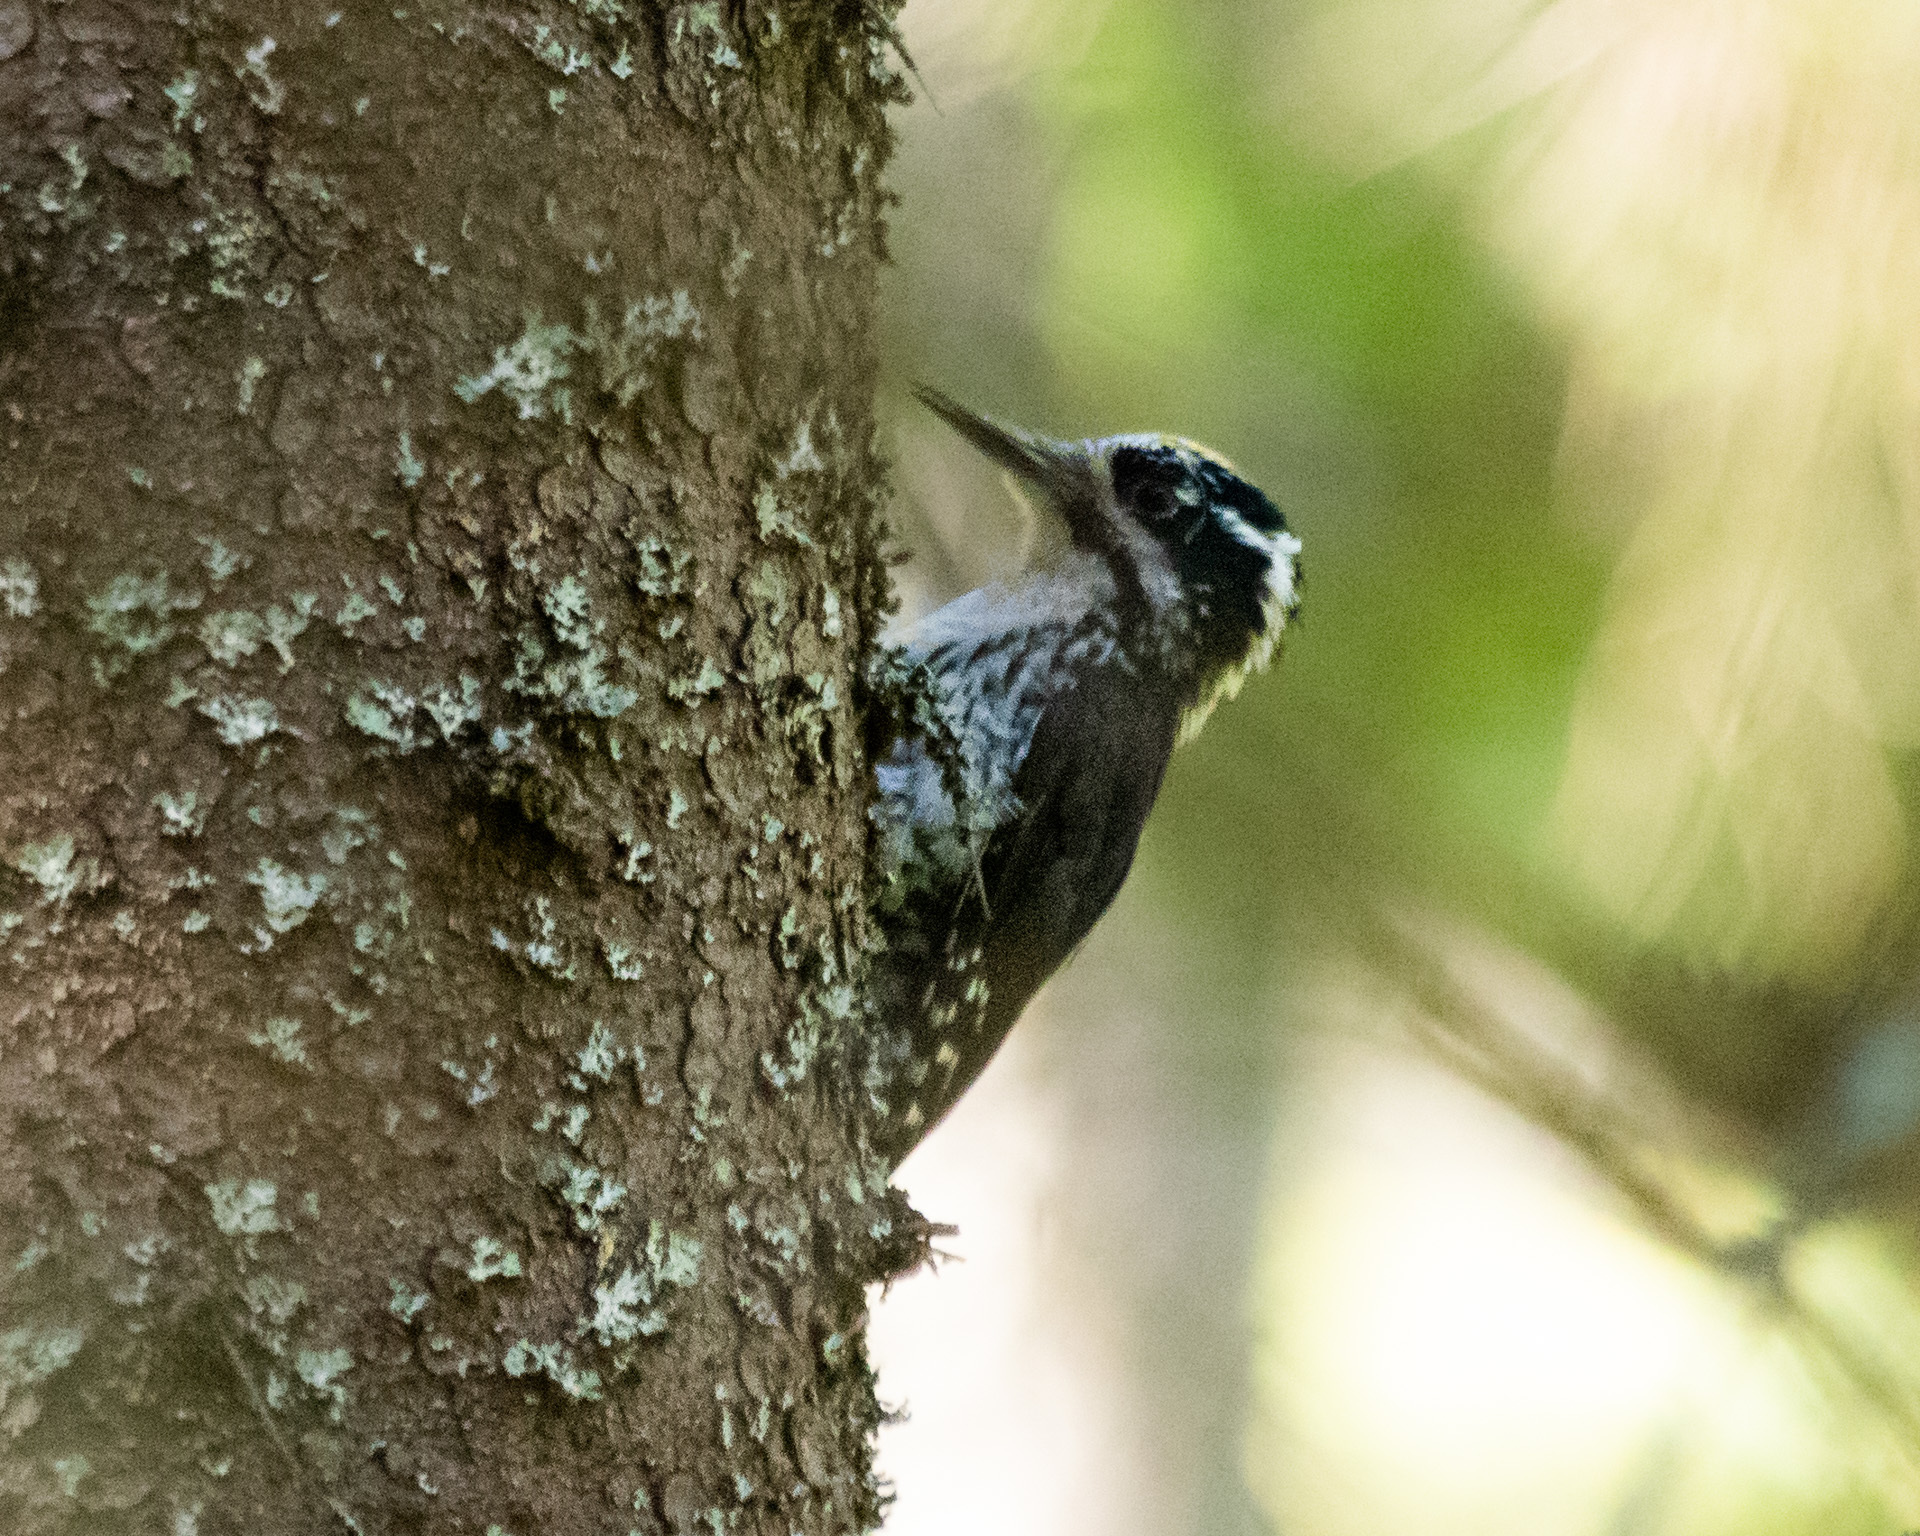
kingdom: Animalia
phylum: Chordata
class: Aves
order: Piciformes
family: Picidae
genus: Picoides
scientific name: Picoides tridactylus
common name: Eurasian three-toed woodpecker
